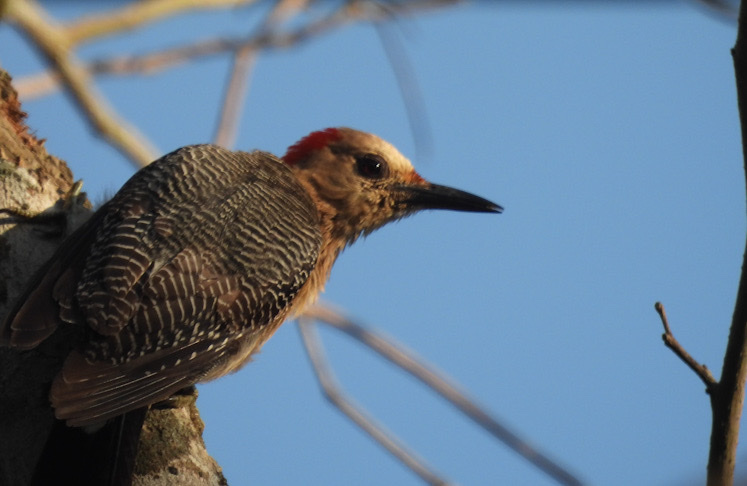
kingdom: Animalia
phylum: Chordata
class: Aves
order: Piciformes
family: Picidae
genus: Melanerpes
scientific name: Melanerpes aurifrons
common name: Golden-fronted woodpecker
